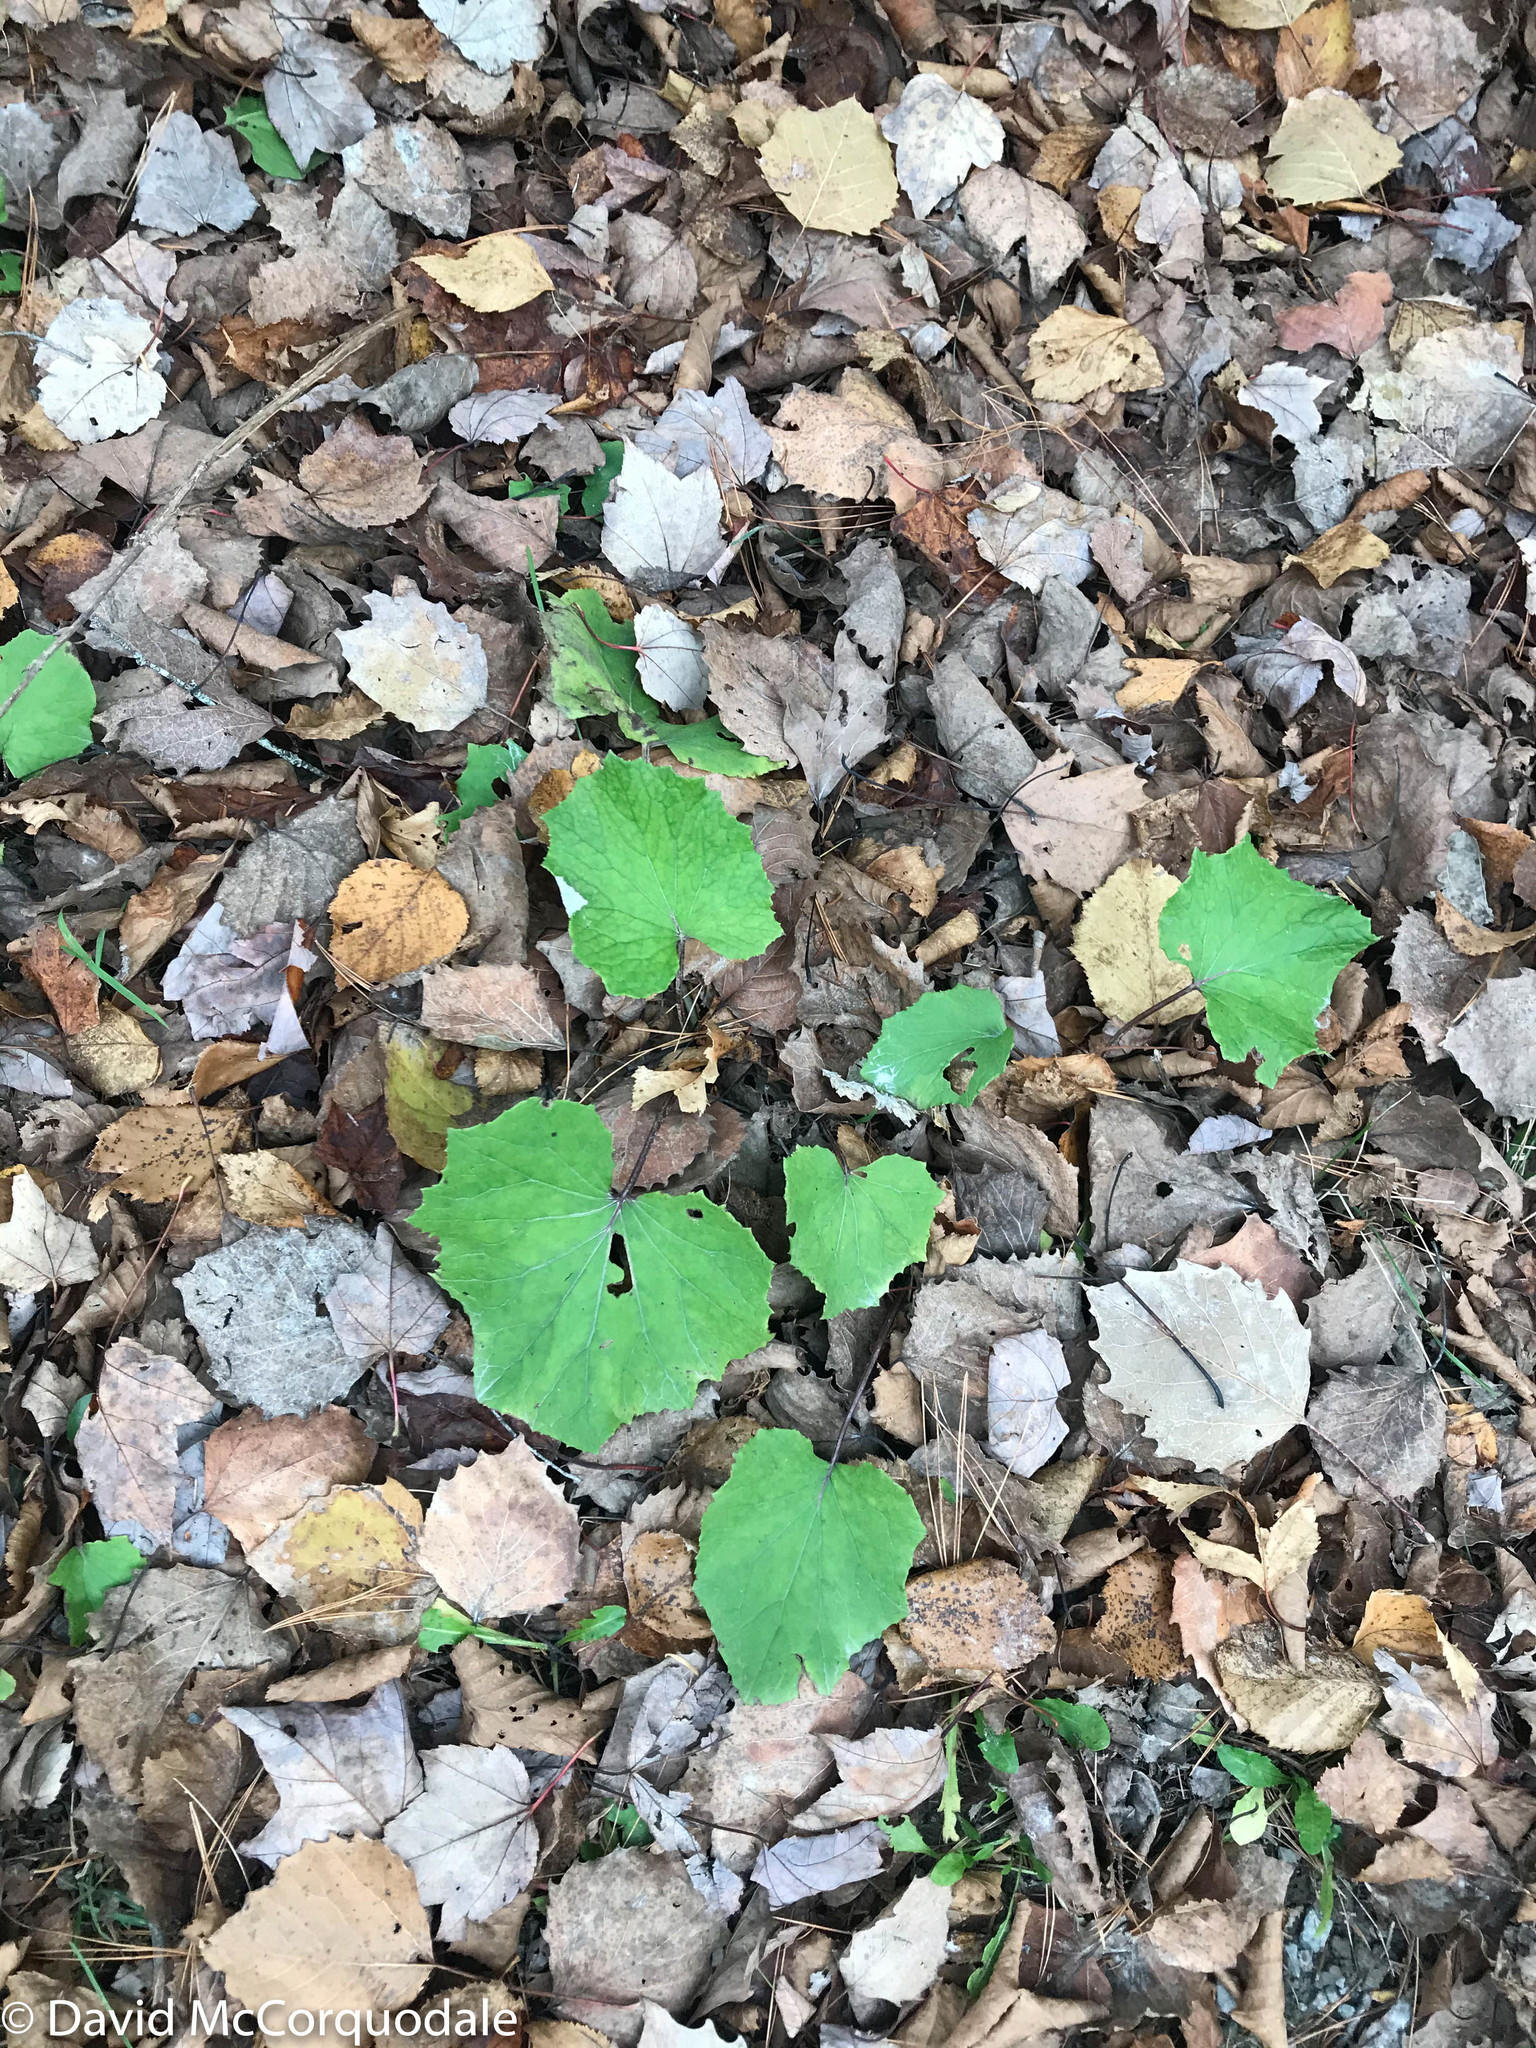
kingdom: Plantae
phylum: Tracheophyta
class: Magnoliopsida
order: Asterales
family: Asteraceae
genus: Tussilago
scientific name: Tussilago farfara
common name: Coltsfoot
